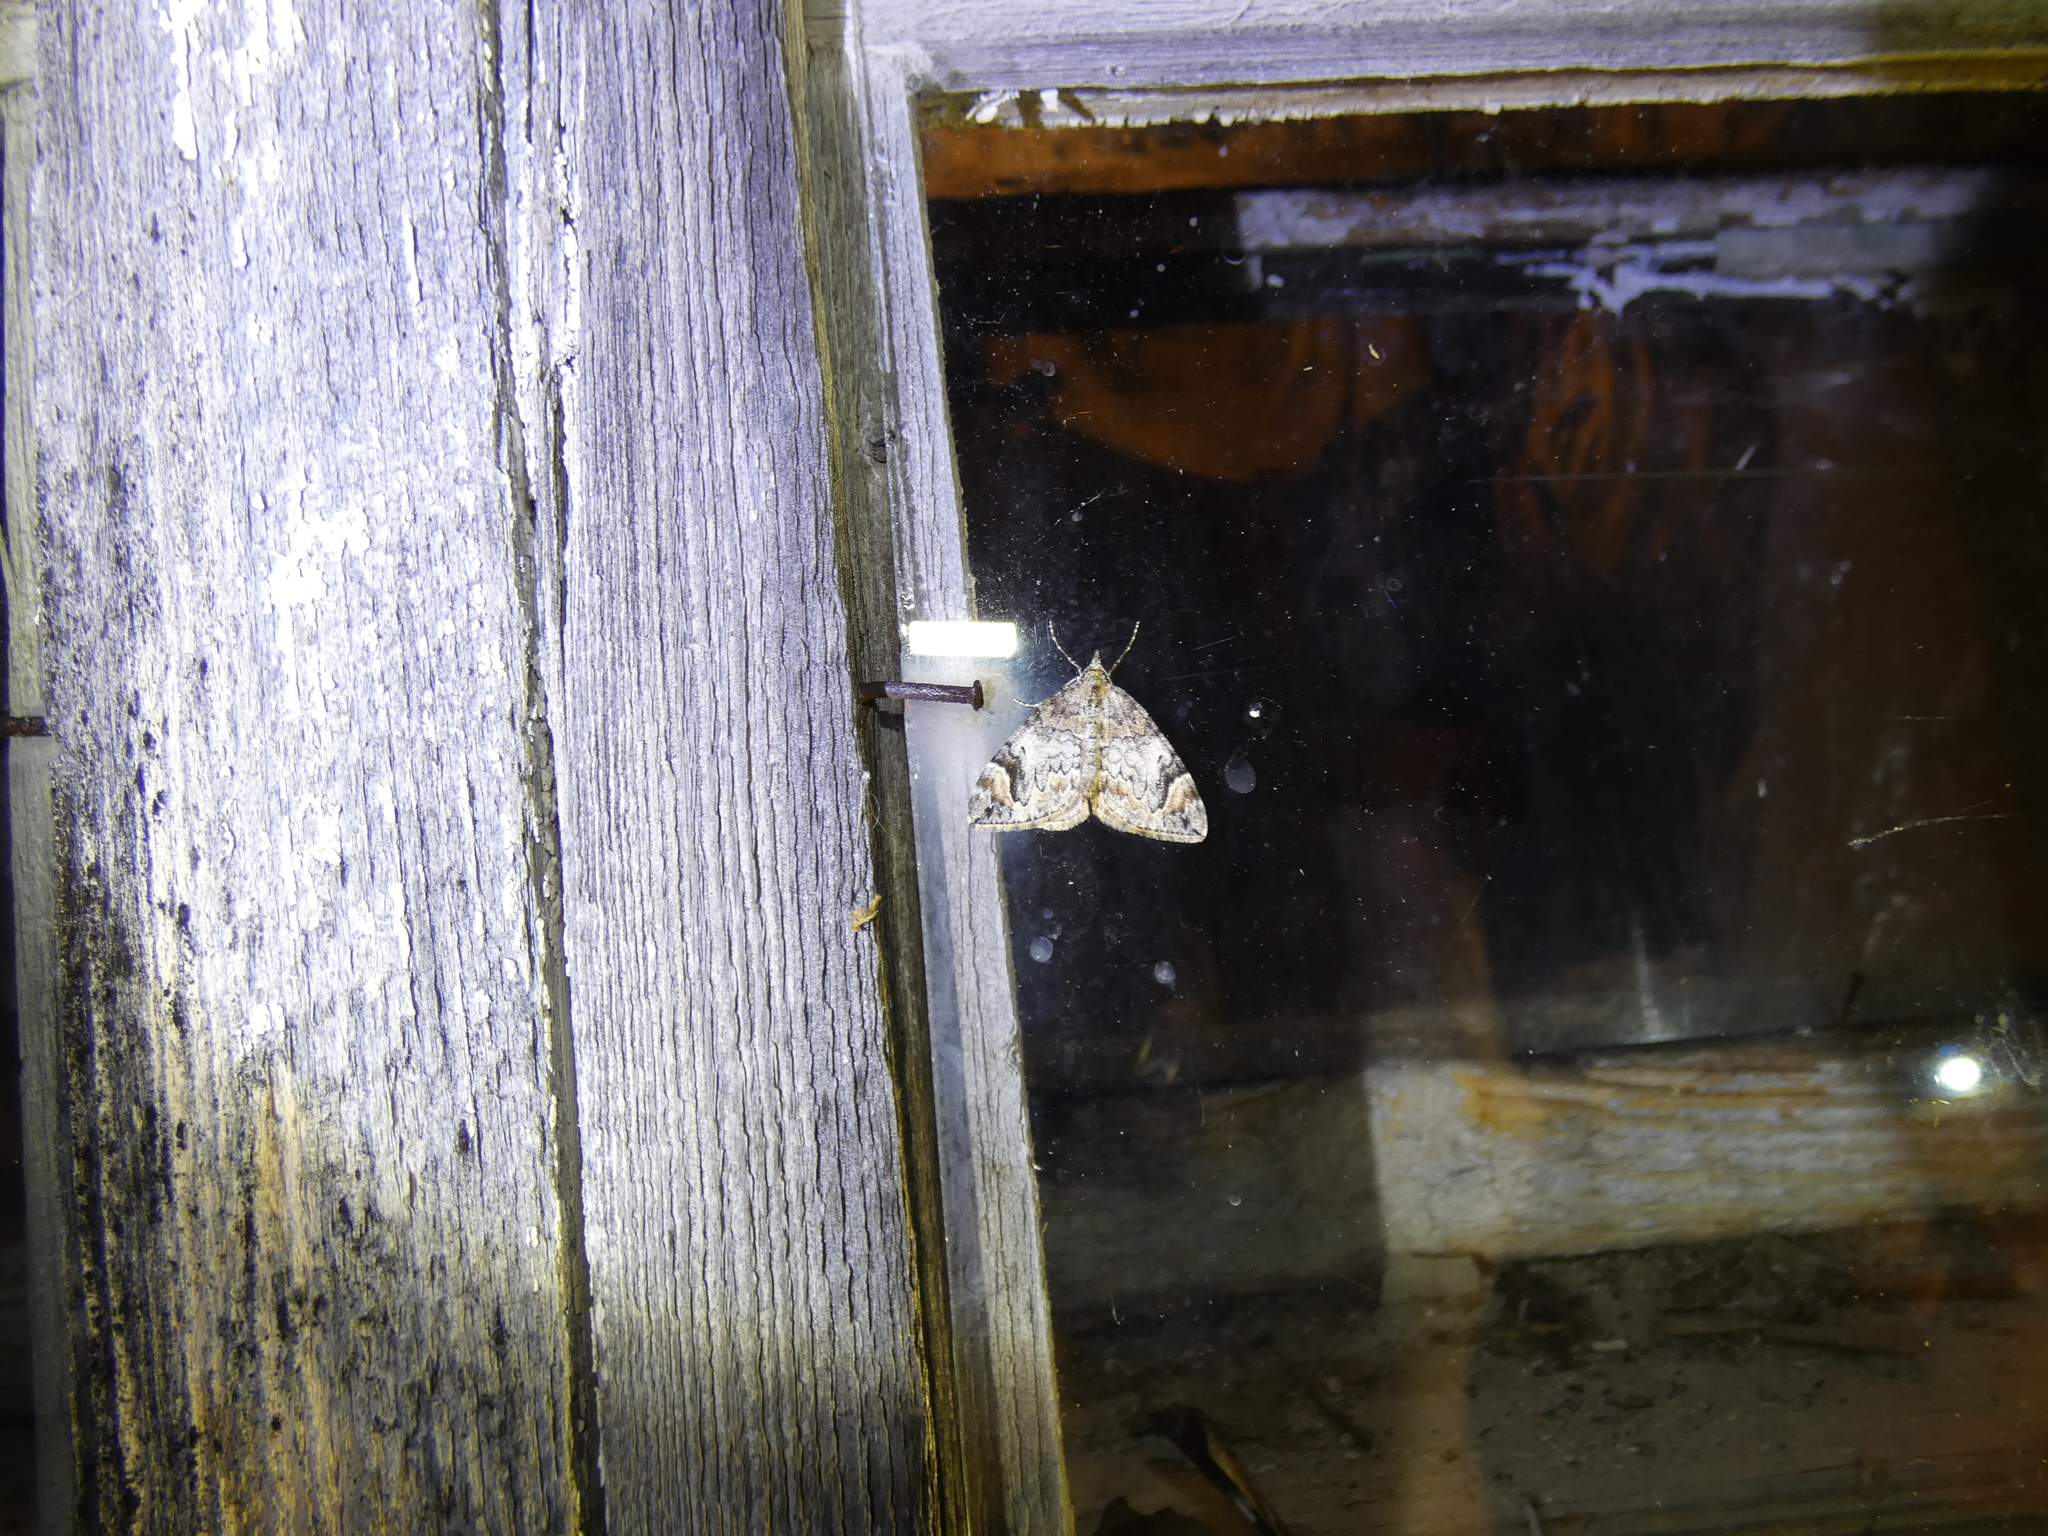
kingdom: Animalia
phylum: Arthropoda
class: Insecta
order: Lepidoptera
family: Geometridae
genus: Dysstroma
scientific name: Dysstroma citrata
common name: Dark marbled carpet
